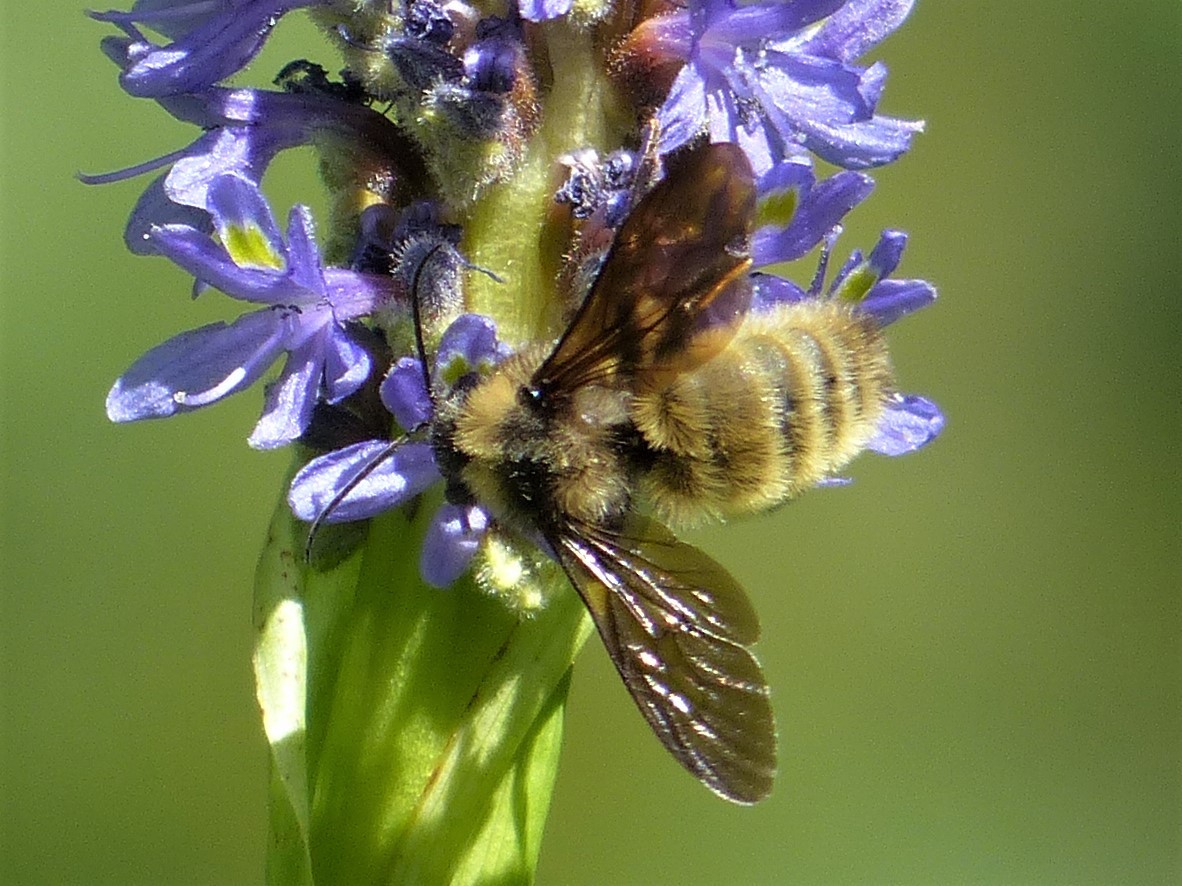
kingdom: Animalia
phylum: Arthropoda
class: Insecta
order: Hymenoptera
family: Apidae
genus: Bombus
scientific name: Bombus pensylvanicus
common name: Bumble bee
